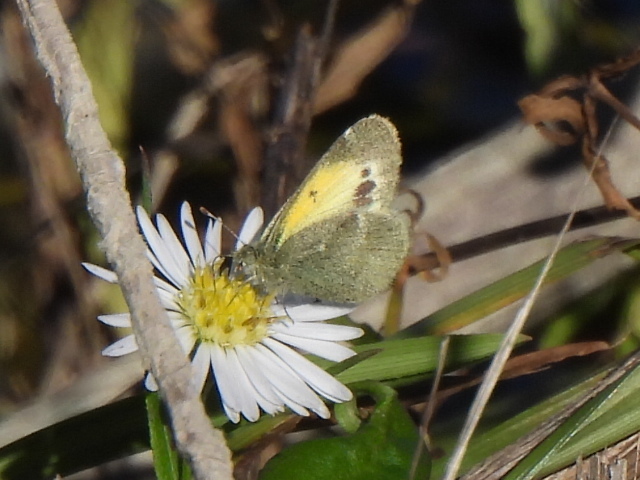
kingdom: Animalia
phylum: Arthropoda
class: Insecta
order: Lepidoptera
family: Pieridae
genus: Nathalis
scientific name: Nathalis iole
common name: Dainty sulphur
